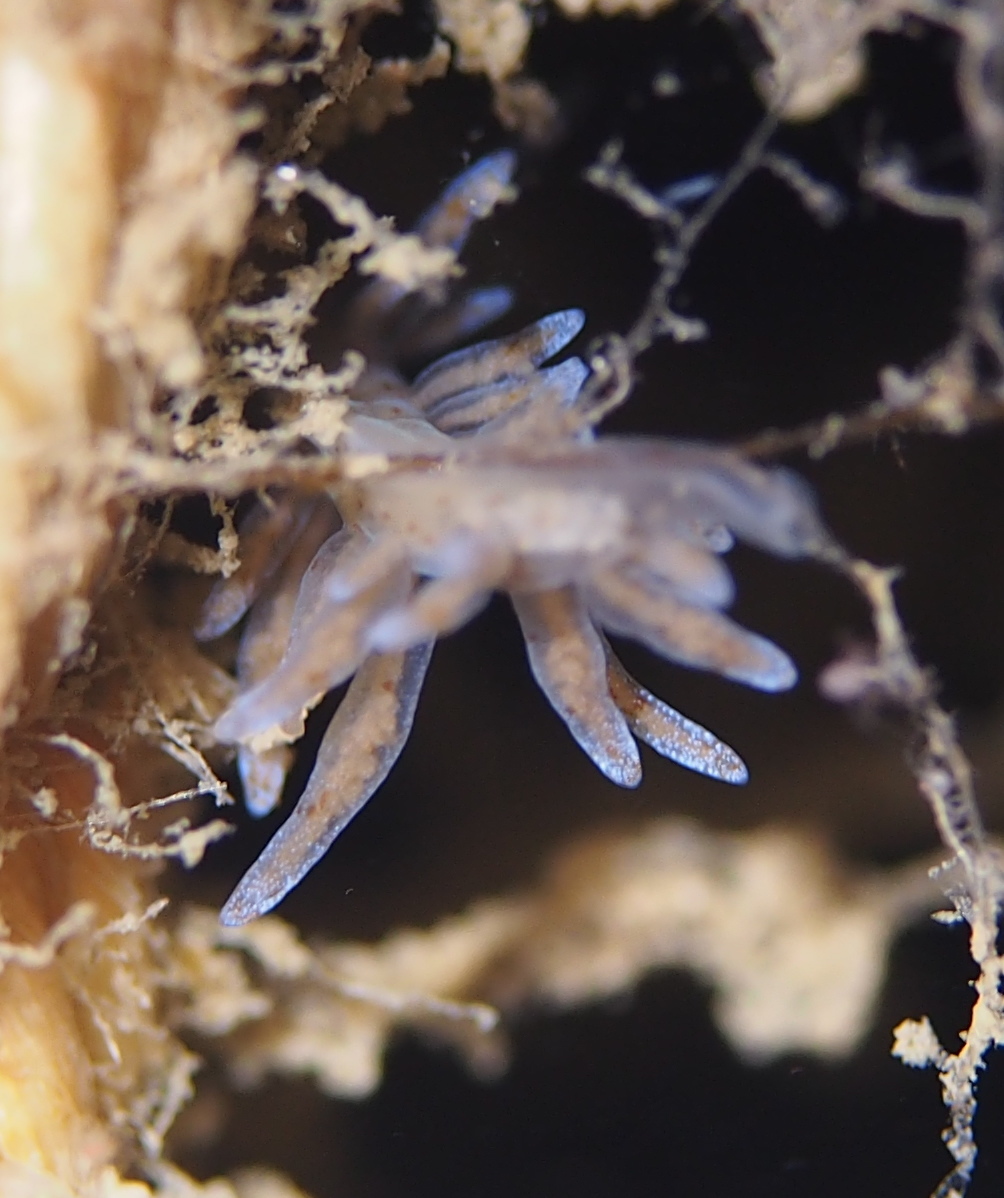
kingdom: Animalia
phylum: Mollusca
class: Gastropoda
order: Nudibranchia
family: Eubranchidae
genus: Eubranchus
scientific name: Eubranchus rupium
